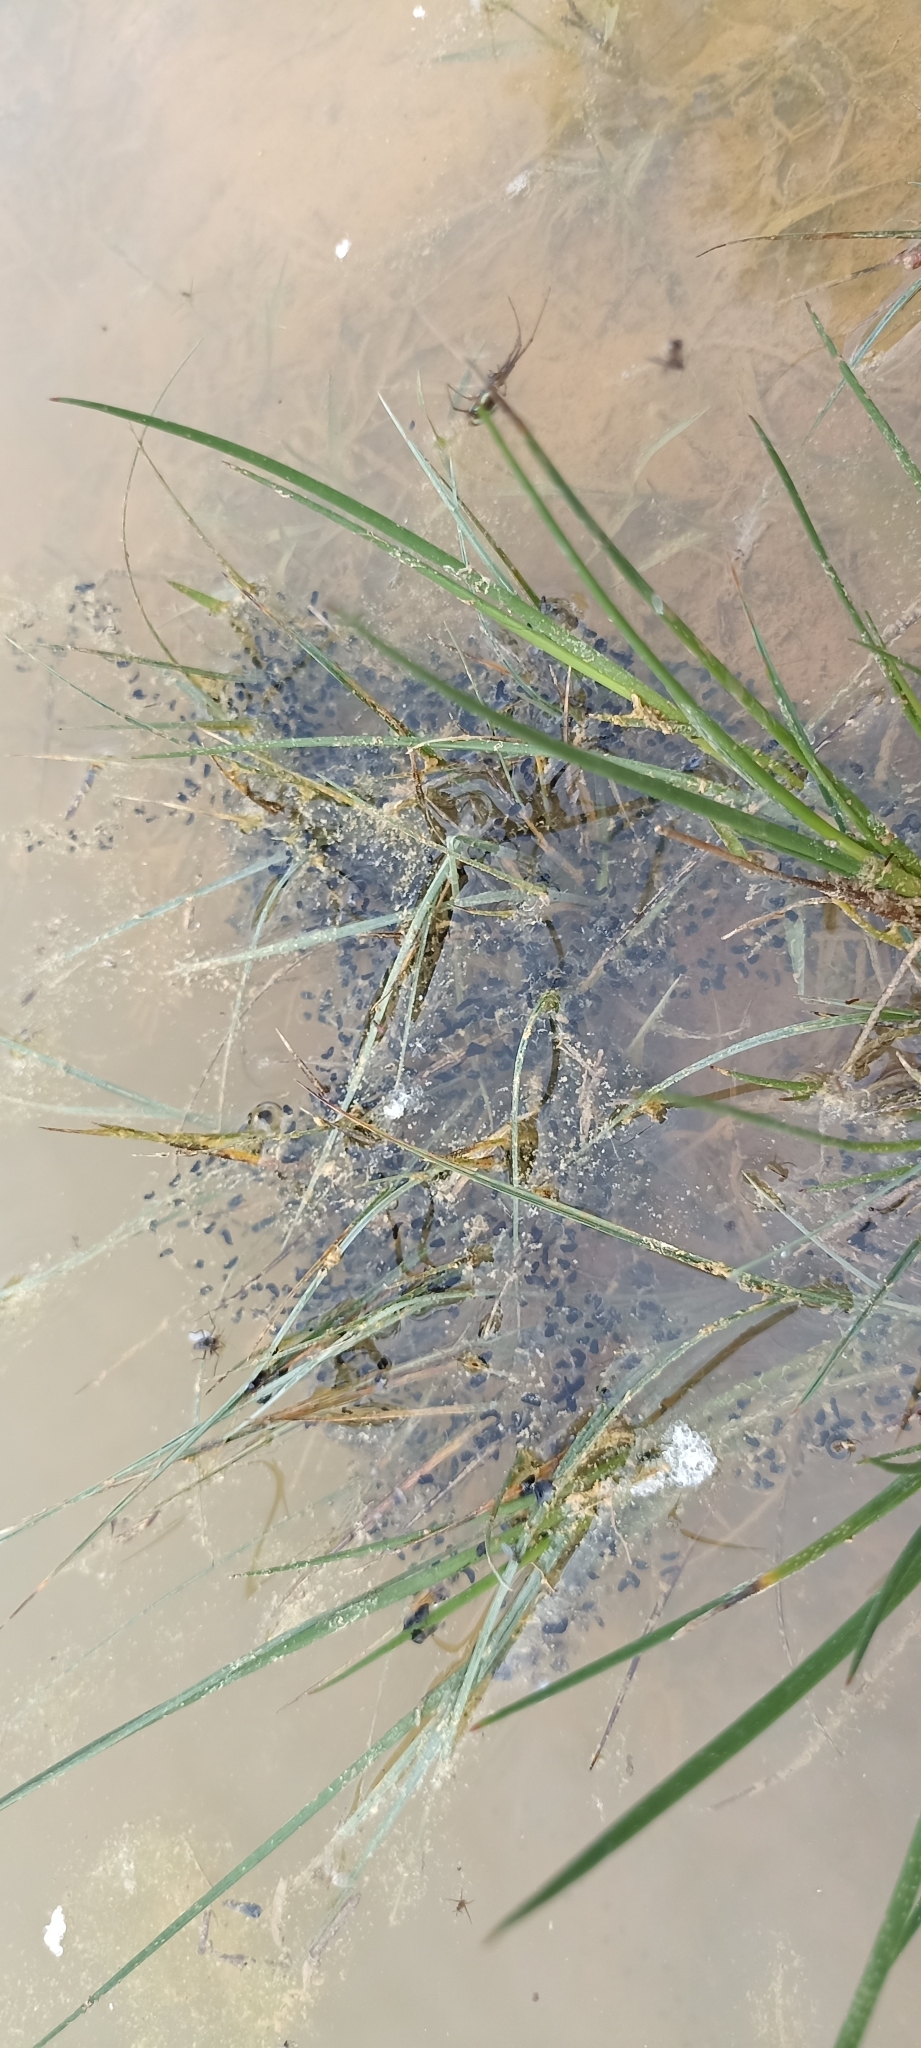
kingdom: Animalia
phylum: Chordata
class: Amphibia
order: Anura
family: Bufonidae
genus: Epidalea
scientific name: Epidalea calamita
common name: Natterjack toad
